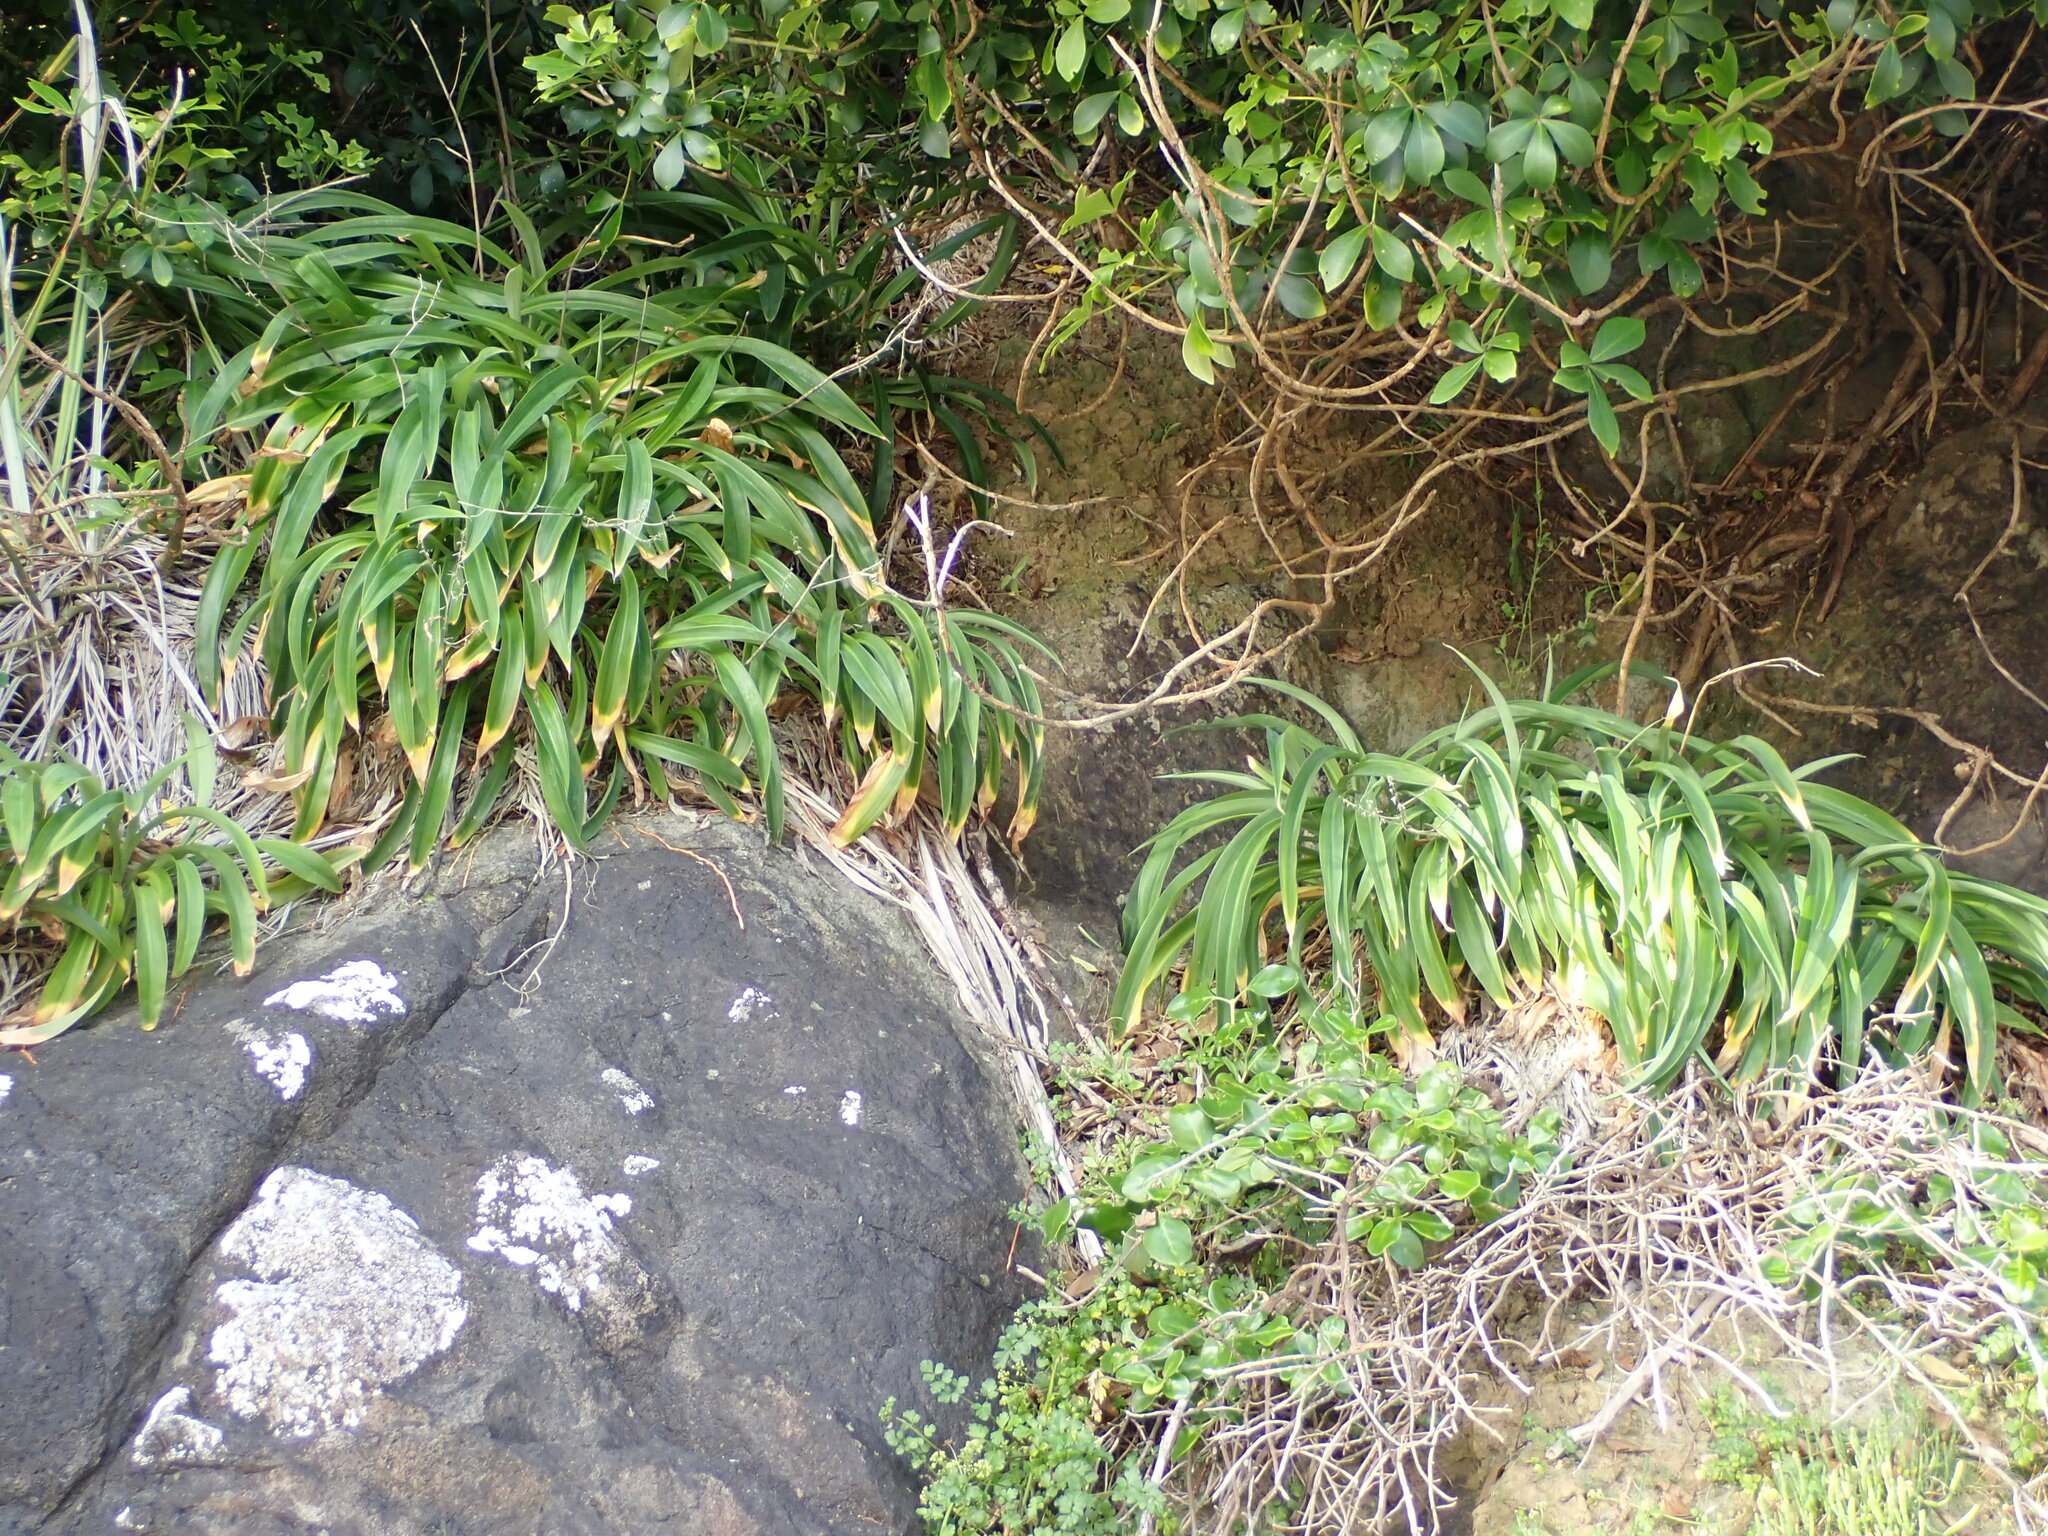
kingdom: Plantae
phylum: Tracheophyta
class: Liliopsida
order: Asparagales
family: Asparagaceae
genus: Arthropodium
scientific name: Arthropodium cirratum
